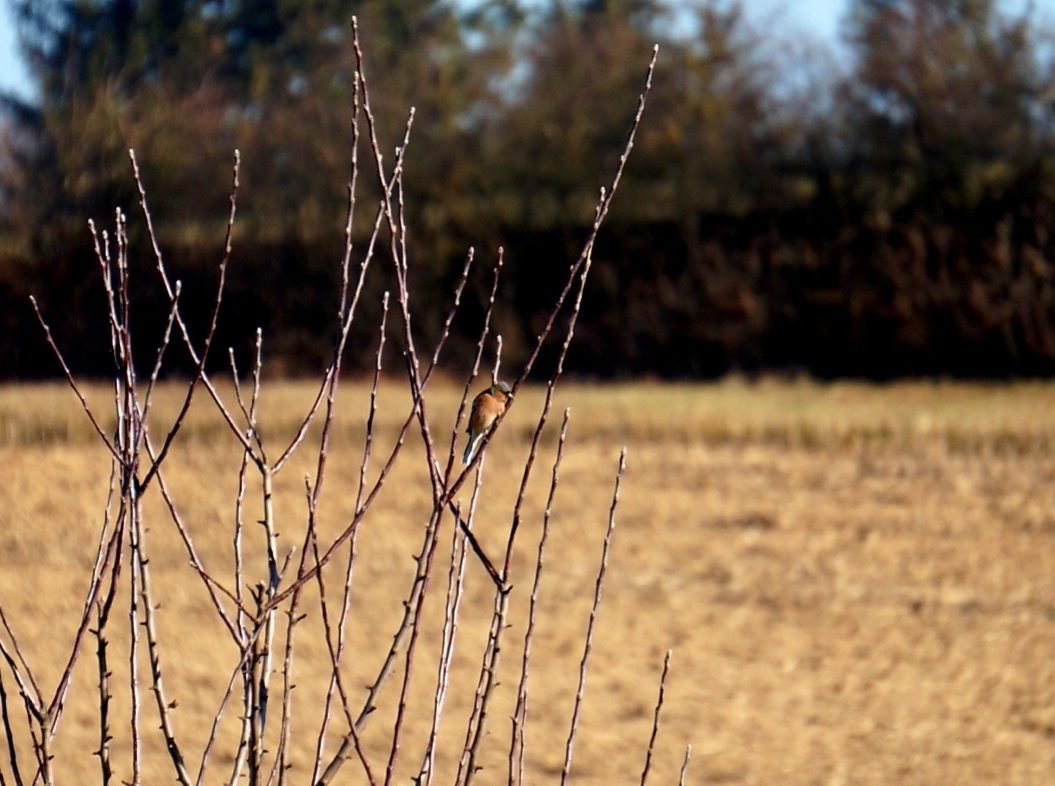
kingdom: Animalia
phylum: Chordata
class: Aves
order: Passeriformes
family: Fringillidae
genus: Fringilla
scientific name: Fringilla coelebs
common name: Common chaffinch
